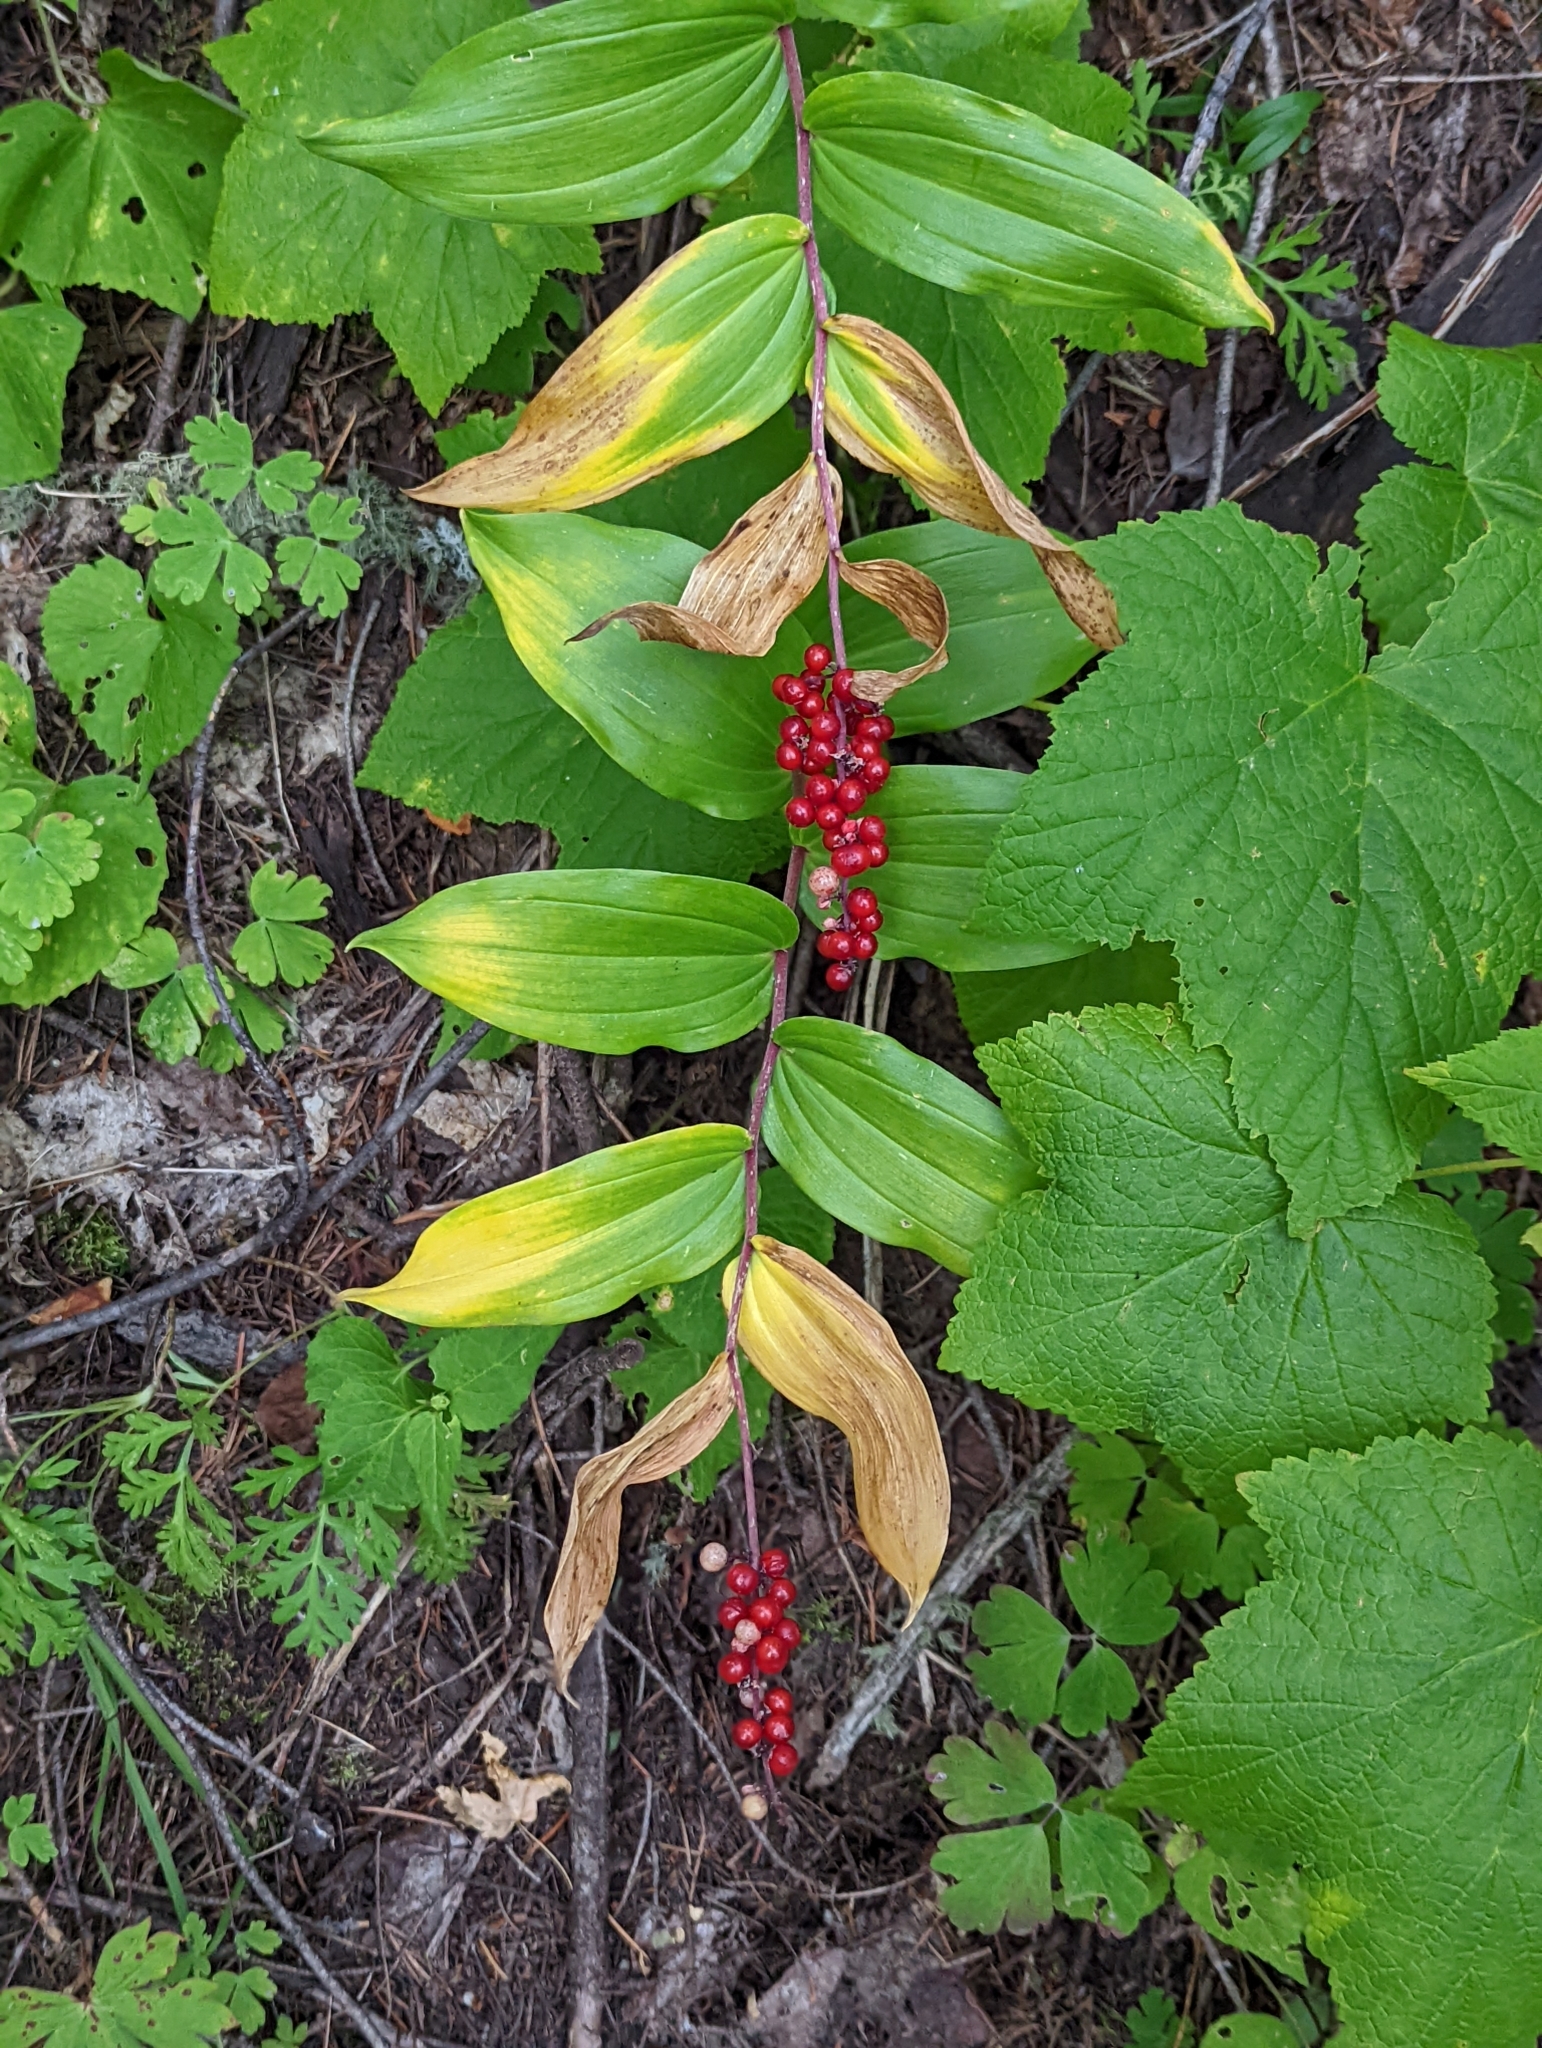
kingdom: Plantae
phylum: Tracheophyta
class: Liliopsida
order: Asparagales
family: Asparagaceae
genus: Maianthemum
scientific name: Maianthemum racemosum
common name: False spikenard
